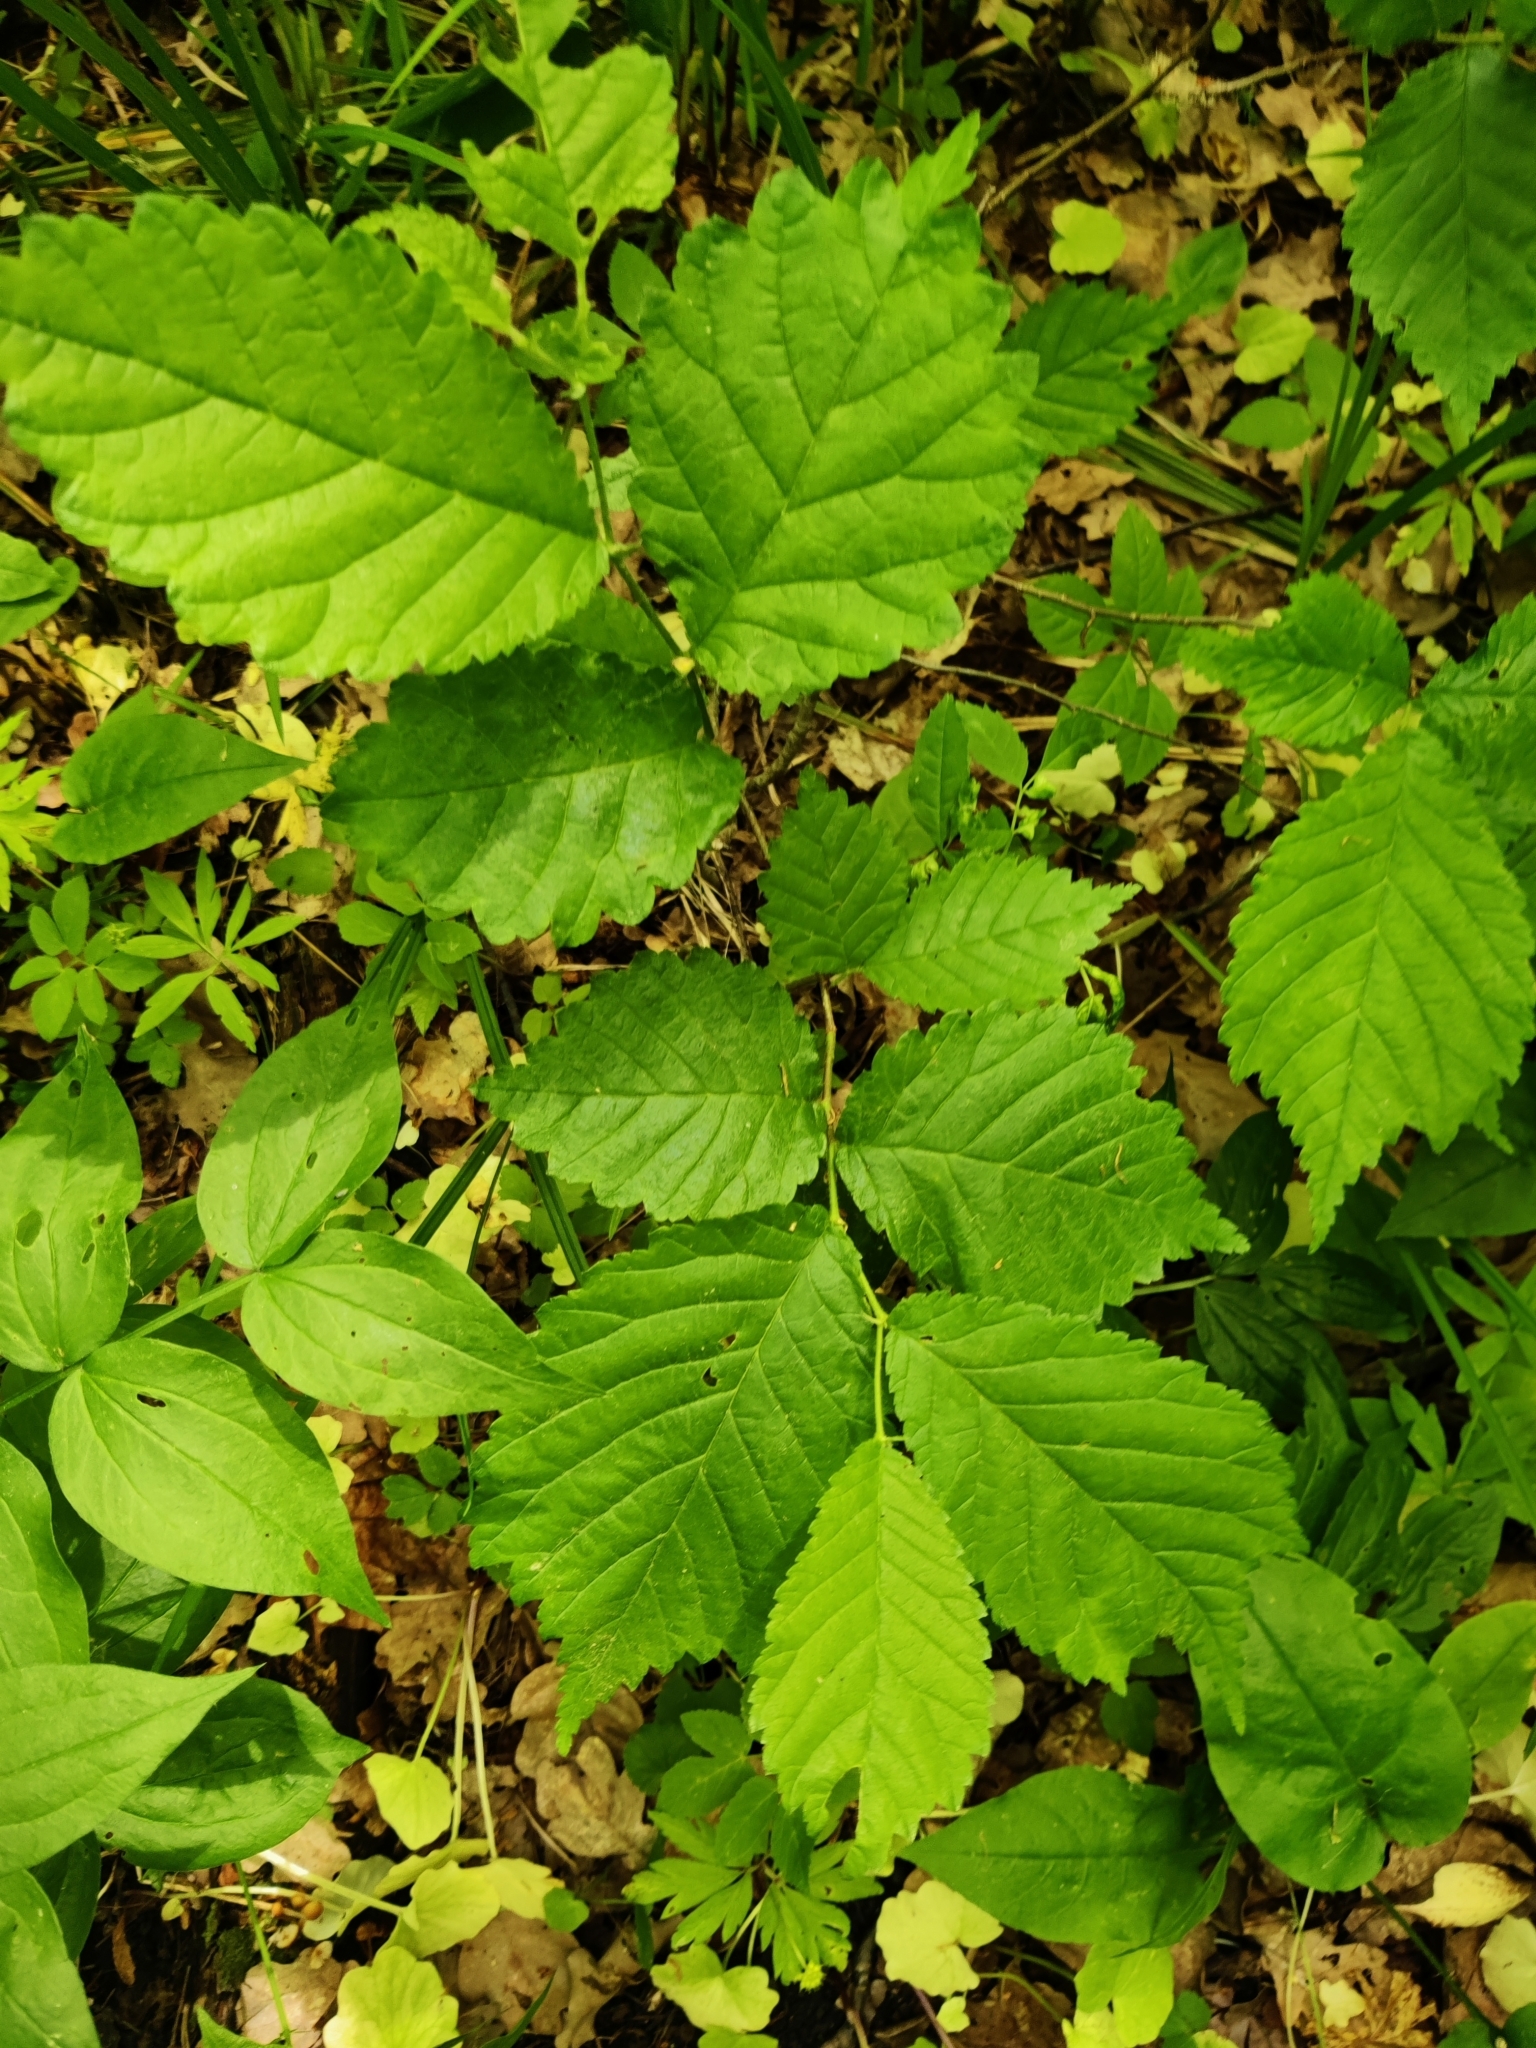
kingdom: Plantae
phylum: Tracheophyta
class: Magnoliopsida
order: Rosales
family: Ulmaceae
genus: Ulmus
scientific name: Ulmus glabra
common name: Wych elm
